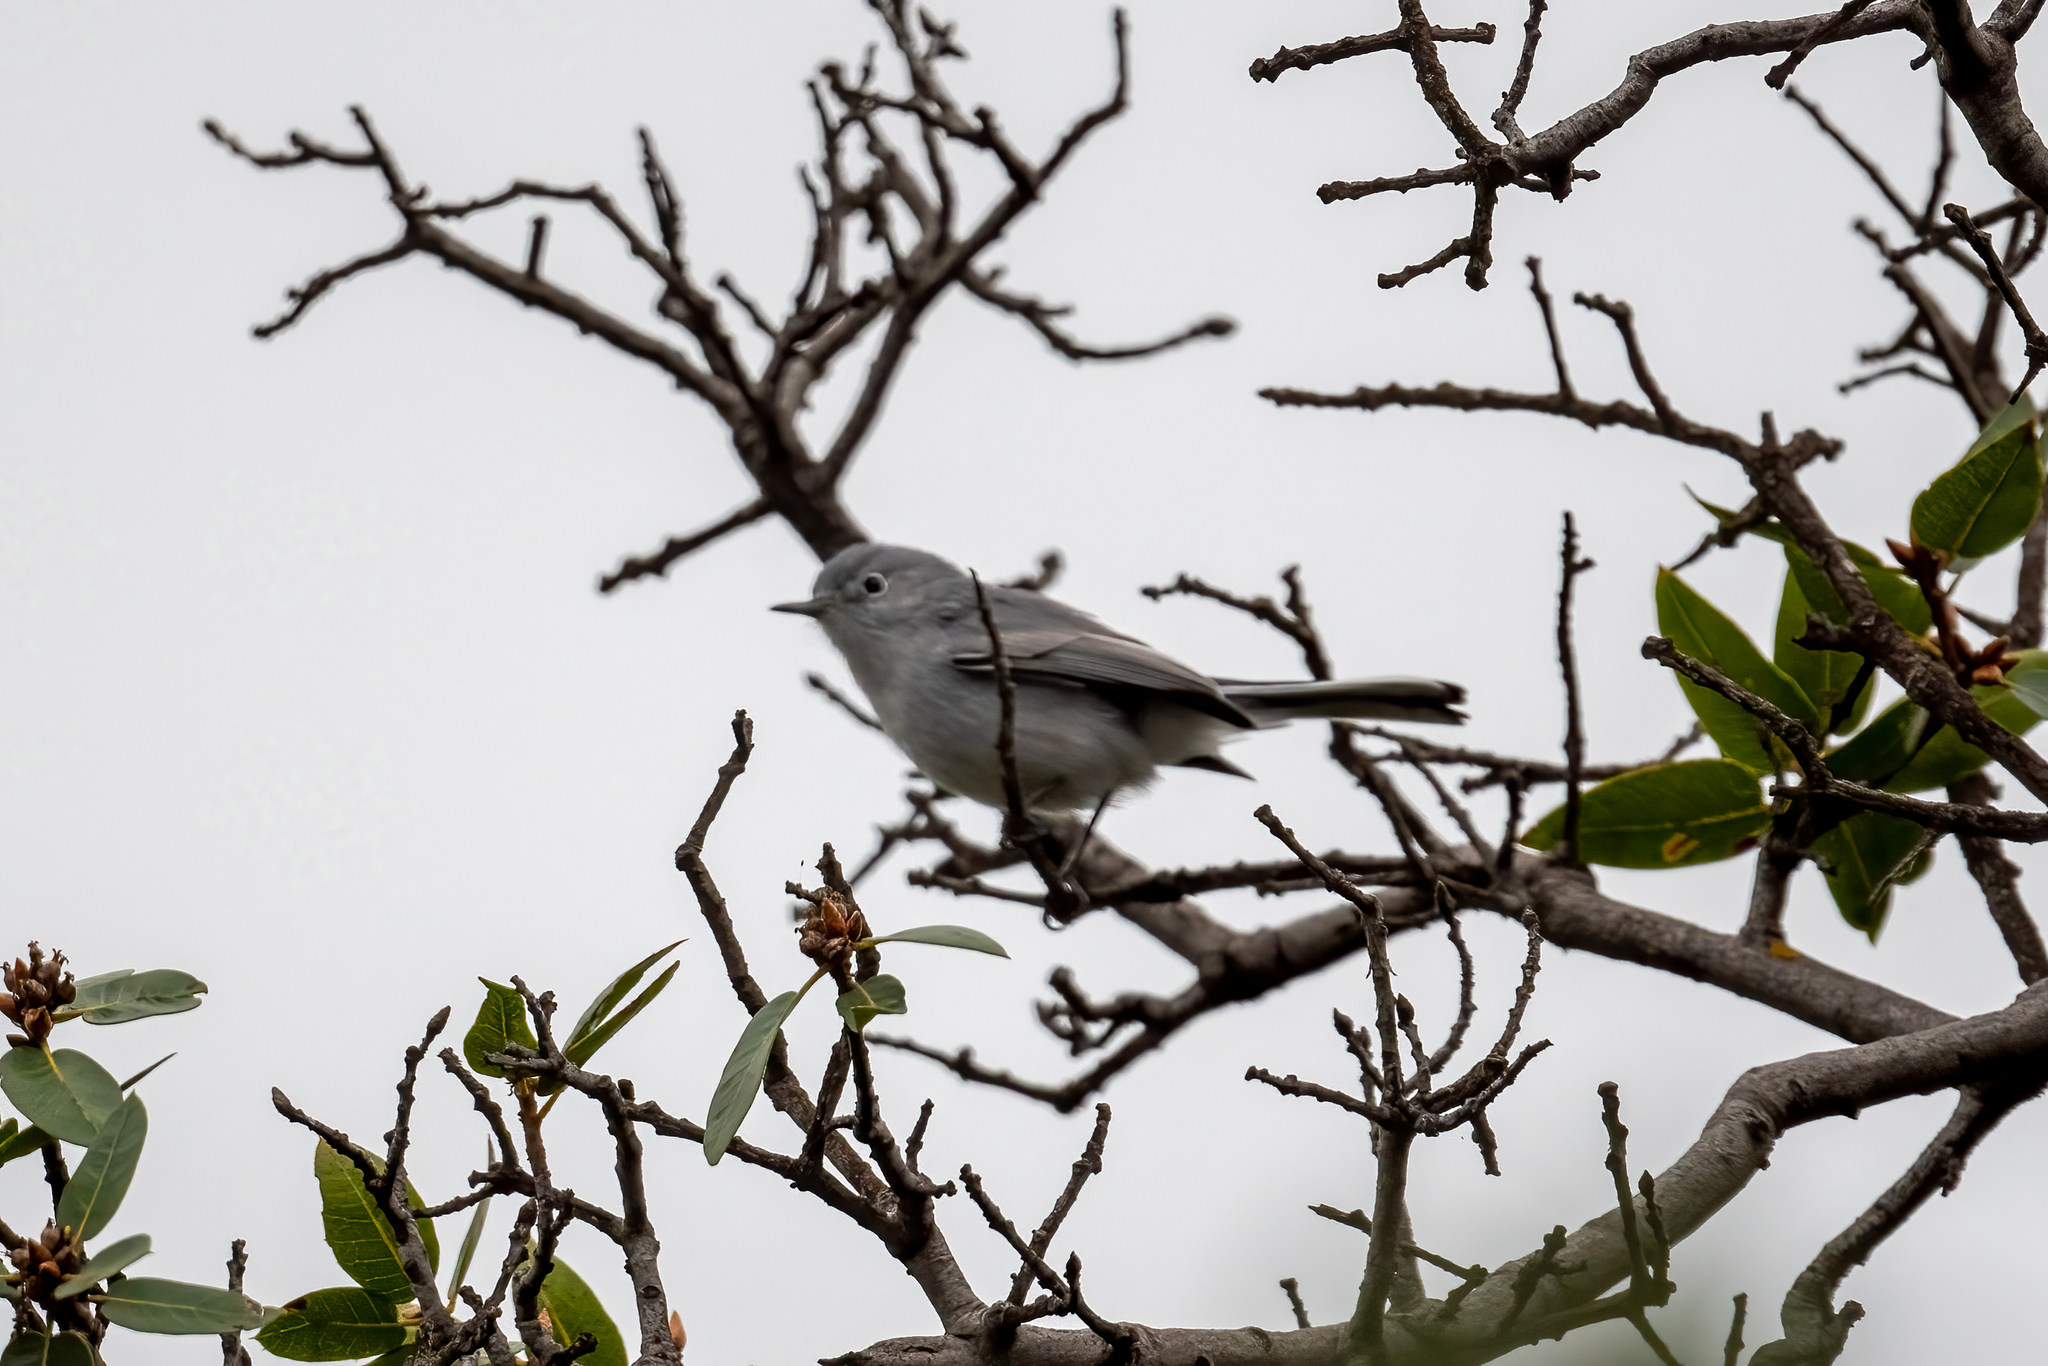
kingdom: Animalia
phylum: Chordata
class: Aves
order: Passeriformes
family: Polioptilidae
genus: Polioptila
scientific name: Polioptila caerulea
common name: Blue-gray gnatcatcher
